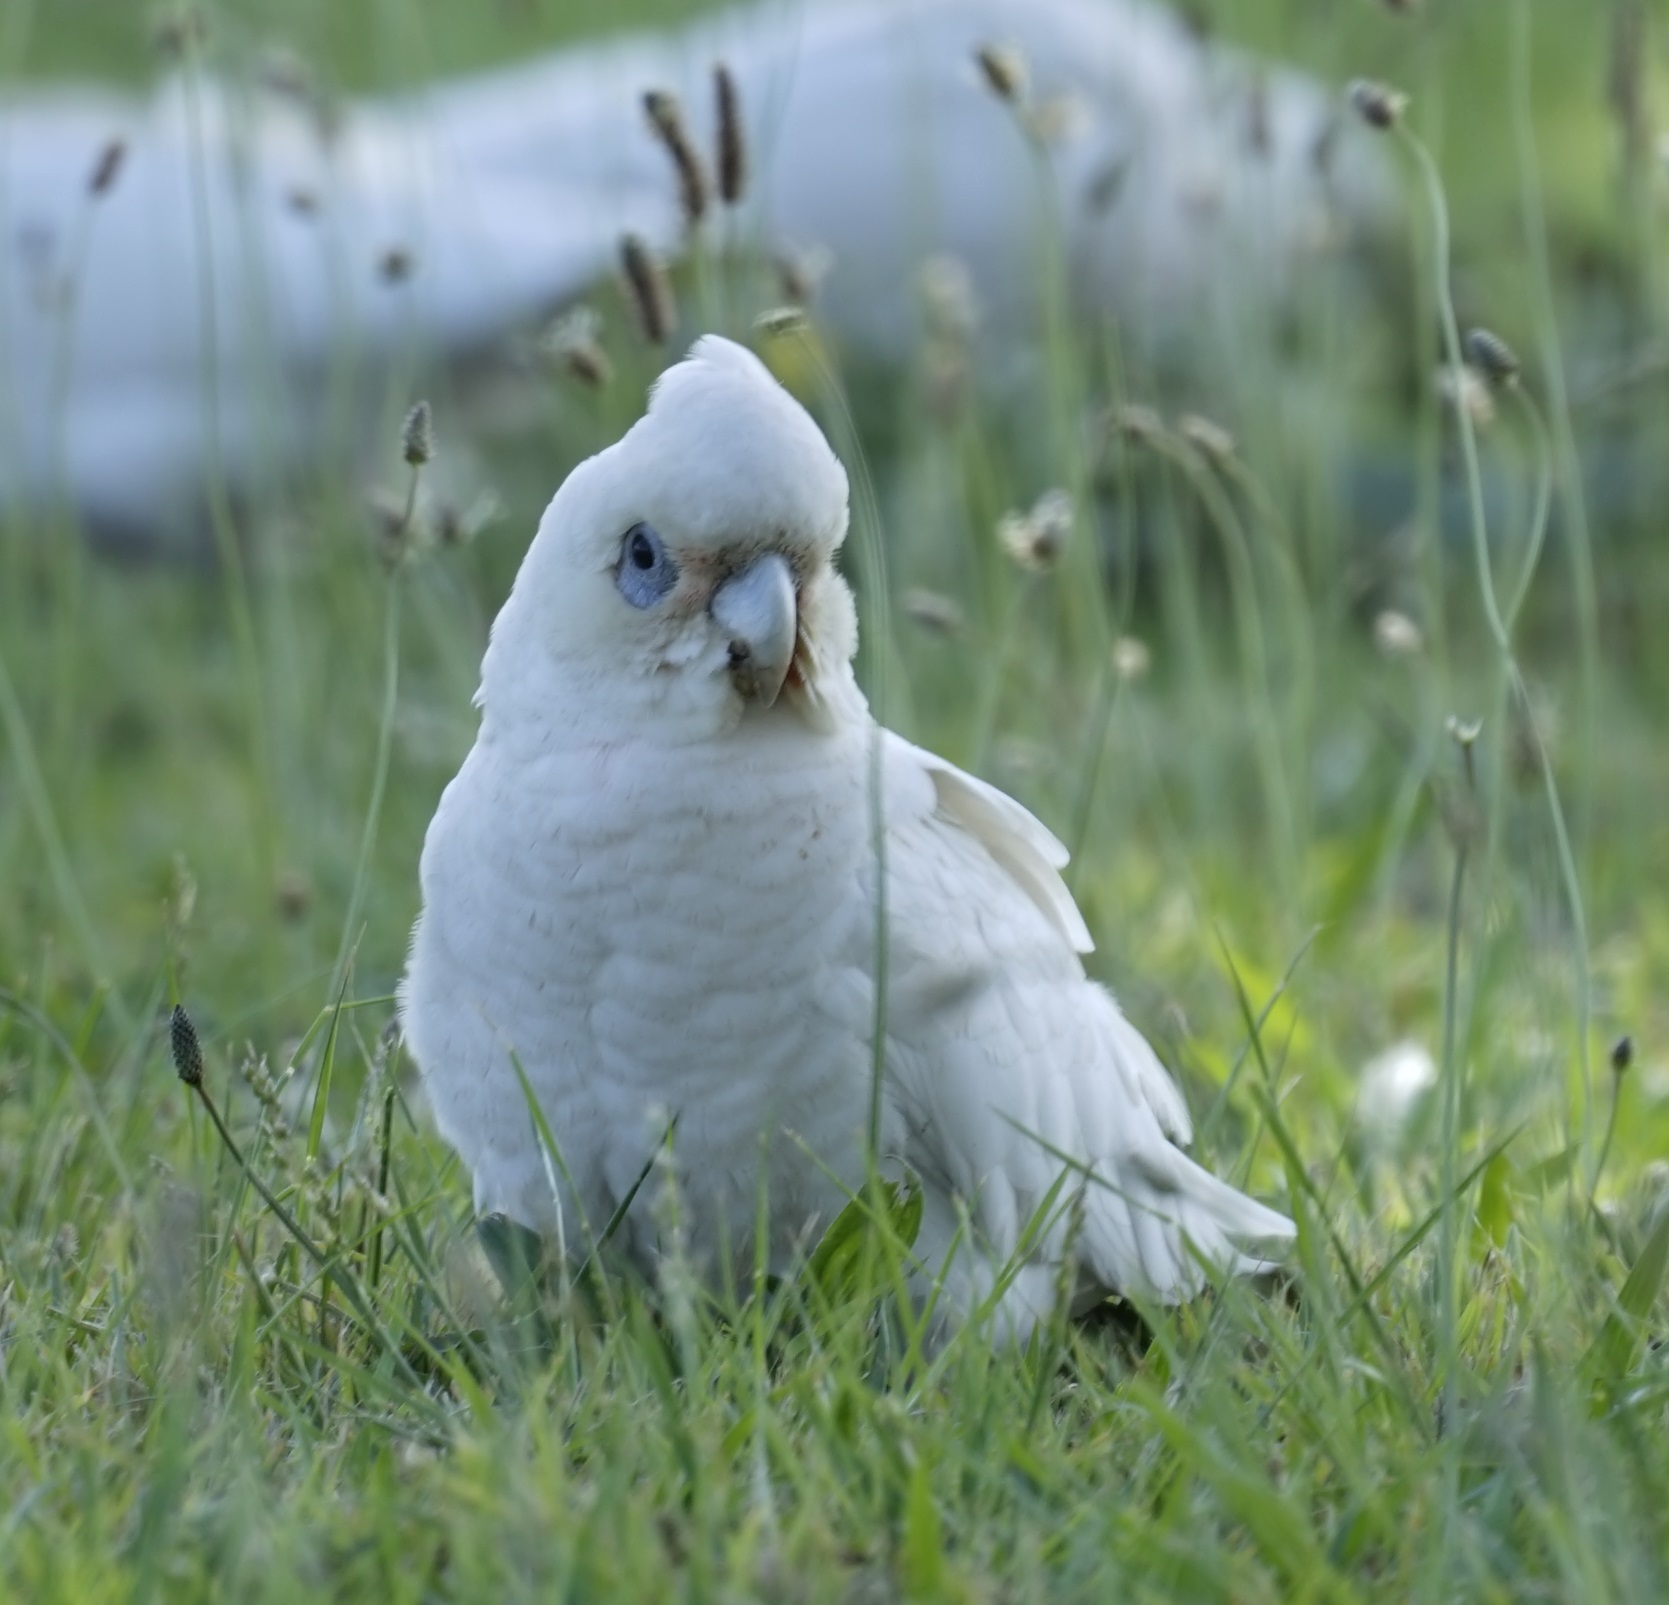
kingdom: Animalia
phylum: Chordata
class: Aves
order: Psittaciformes
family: Psittacidae
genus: Cacatua
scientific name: Cacatua sanguinea
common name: Little corella
